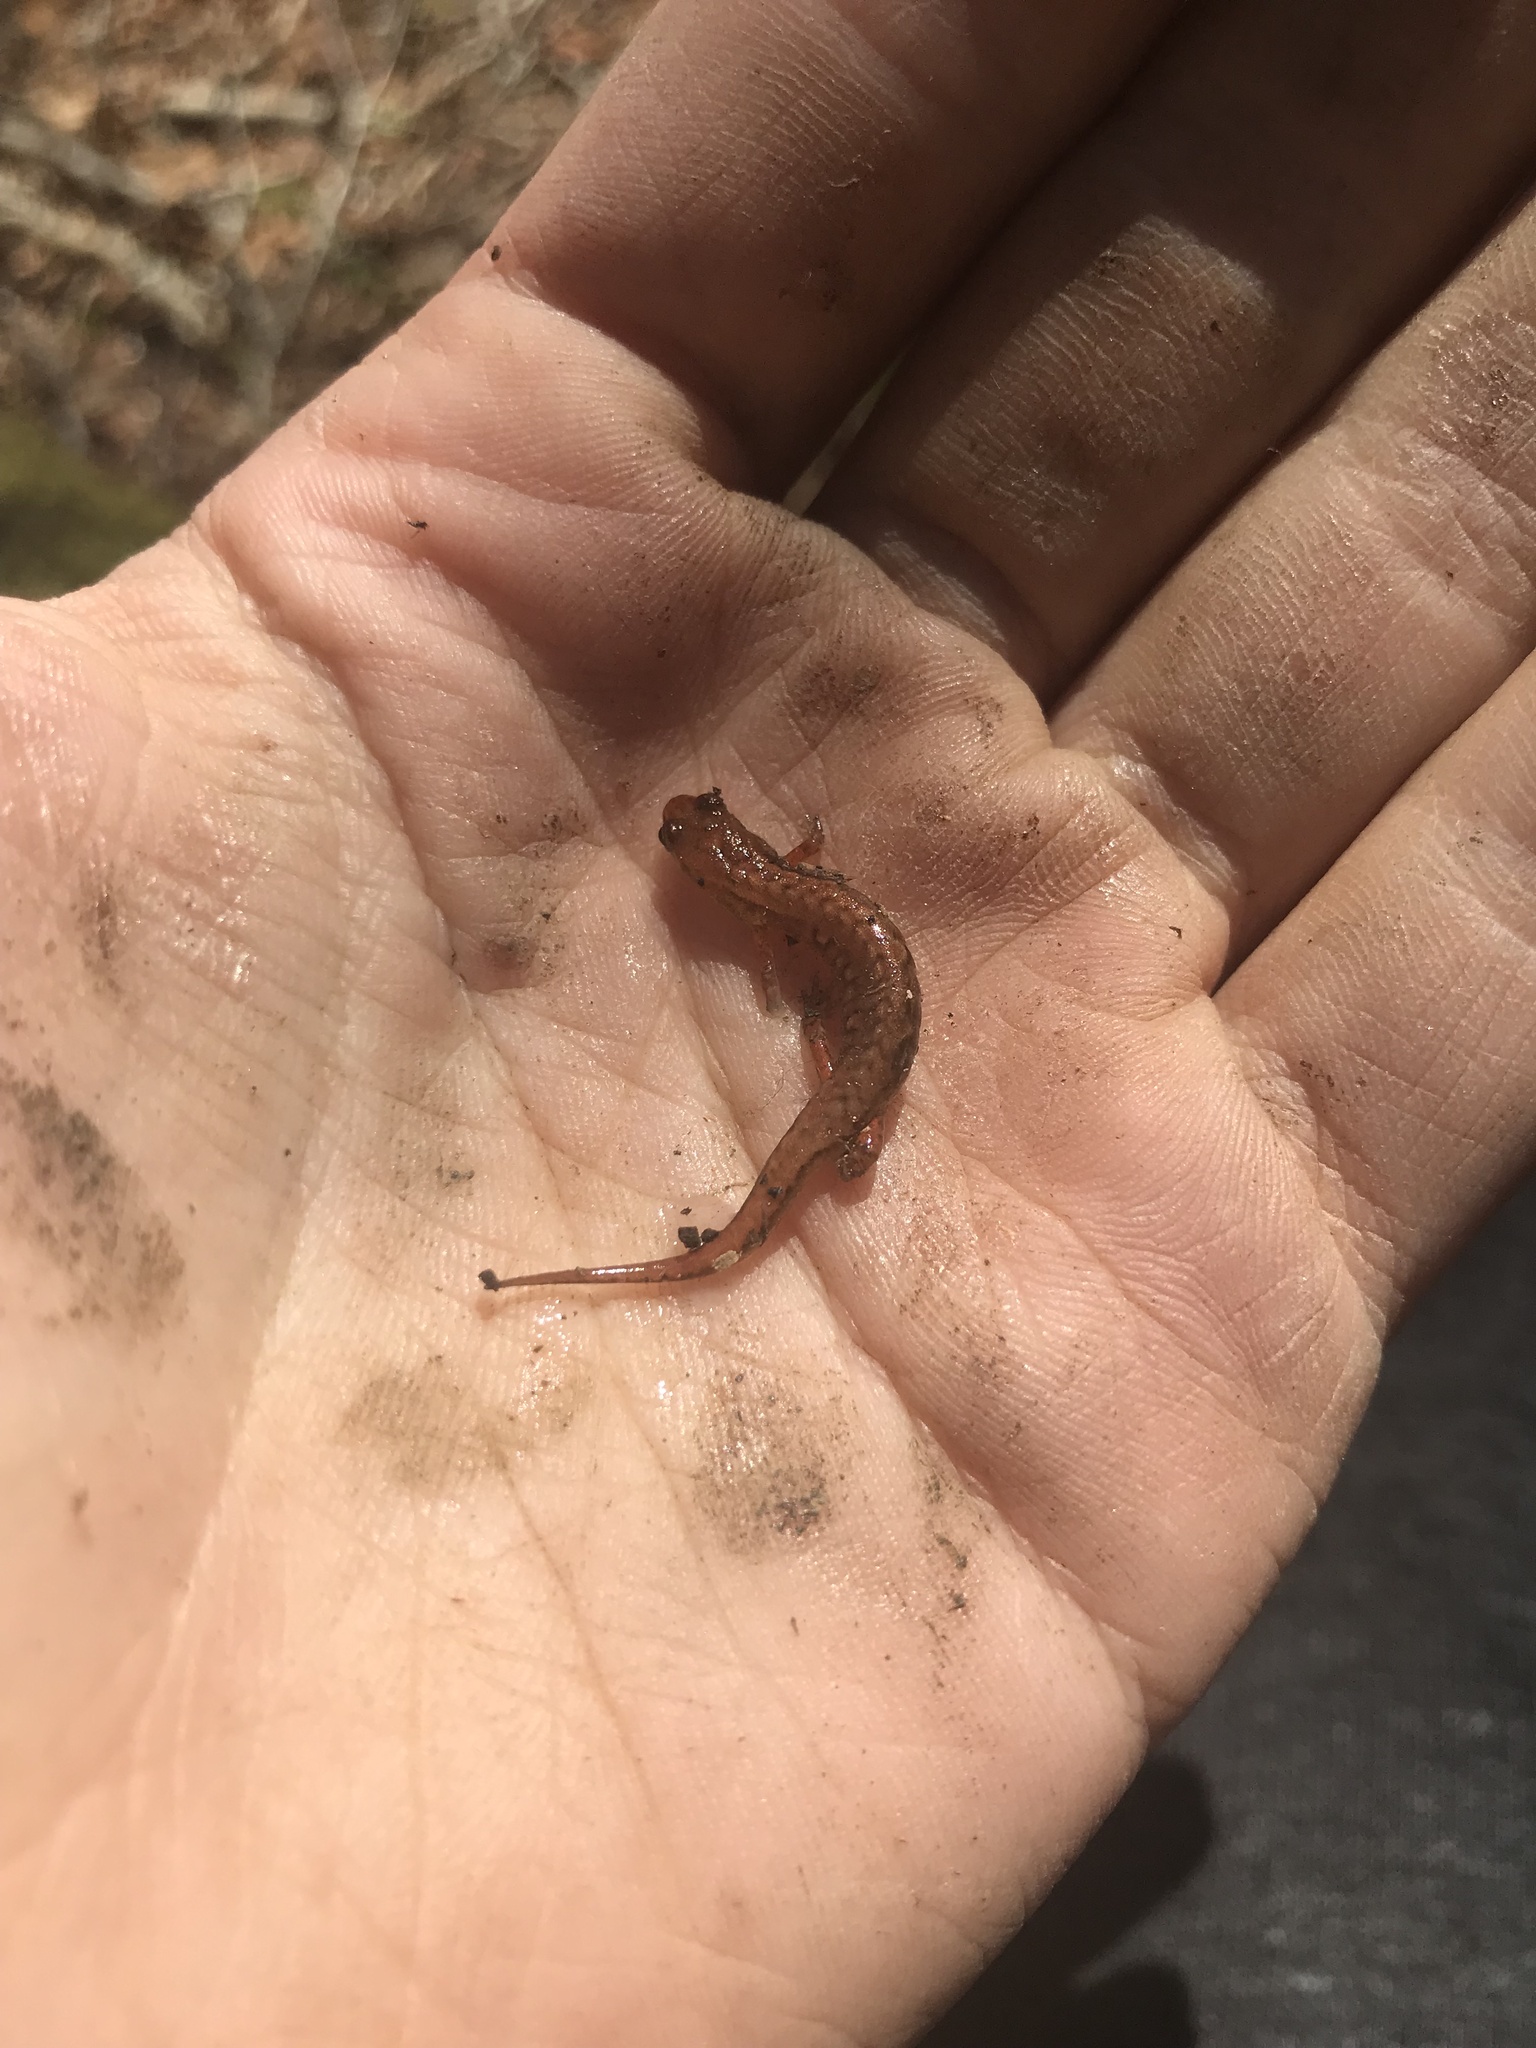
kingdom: Animalia
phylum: Chordata
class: Amphibia
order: Caudata
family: Plethodontidae
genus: Desmognathus
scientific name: Desmognathus wrighti
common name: Pygmy salamander
